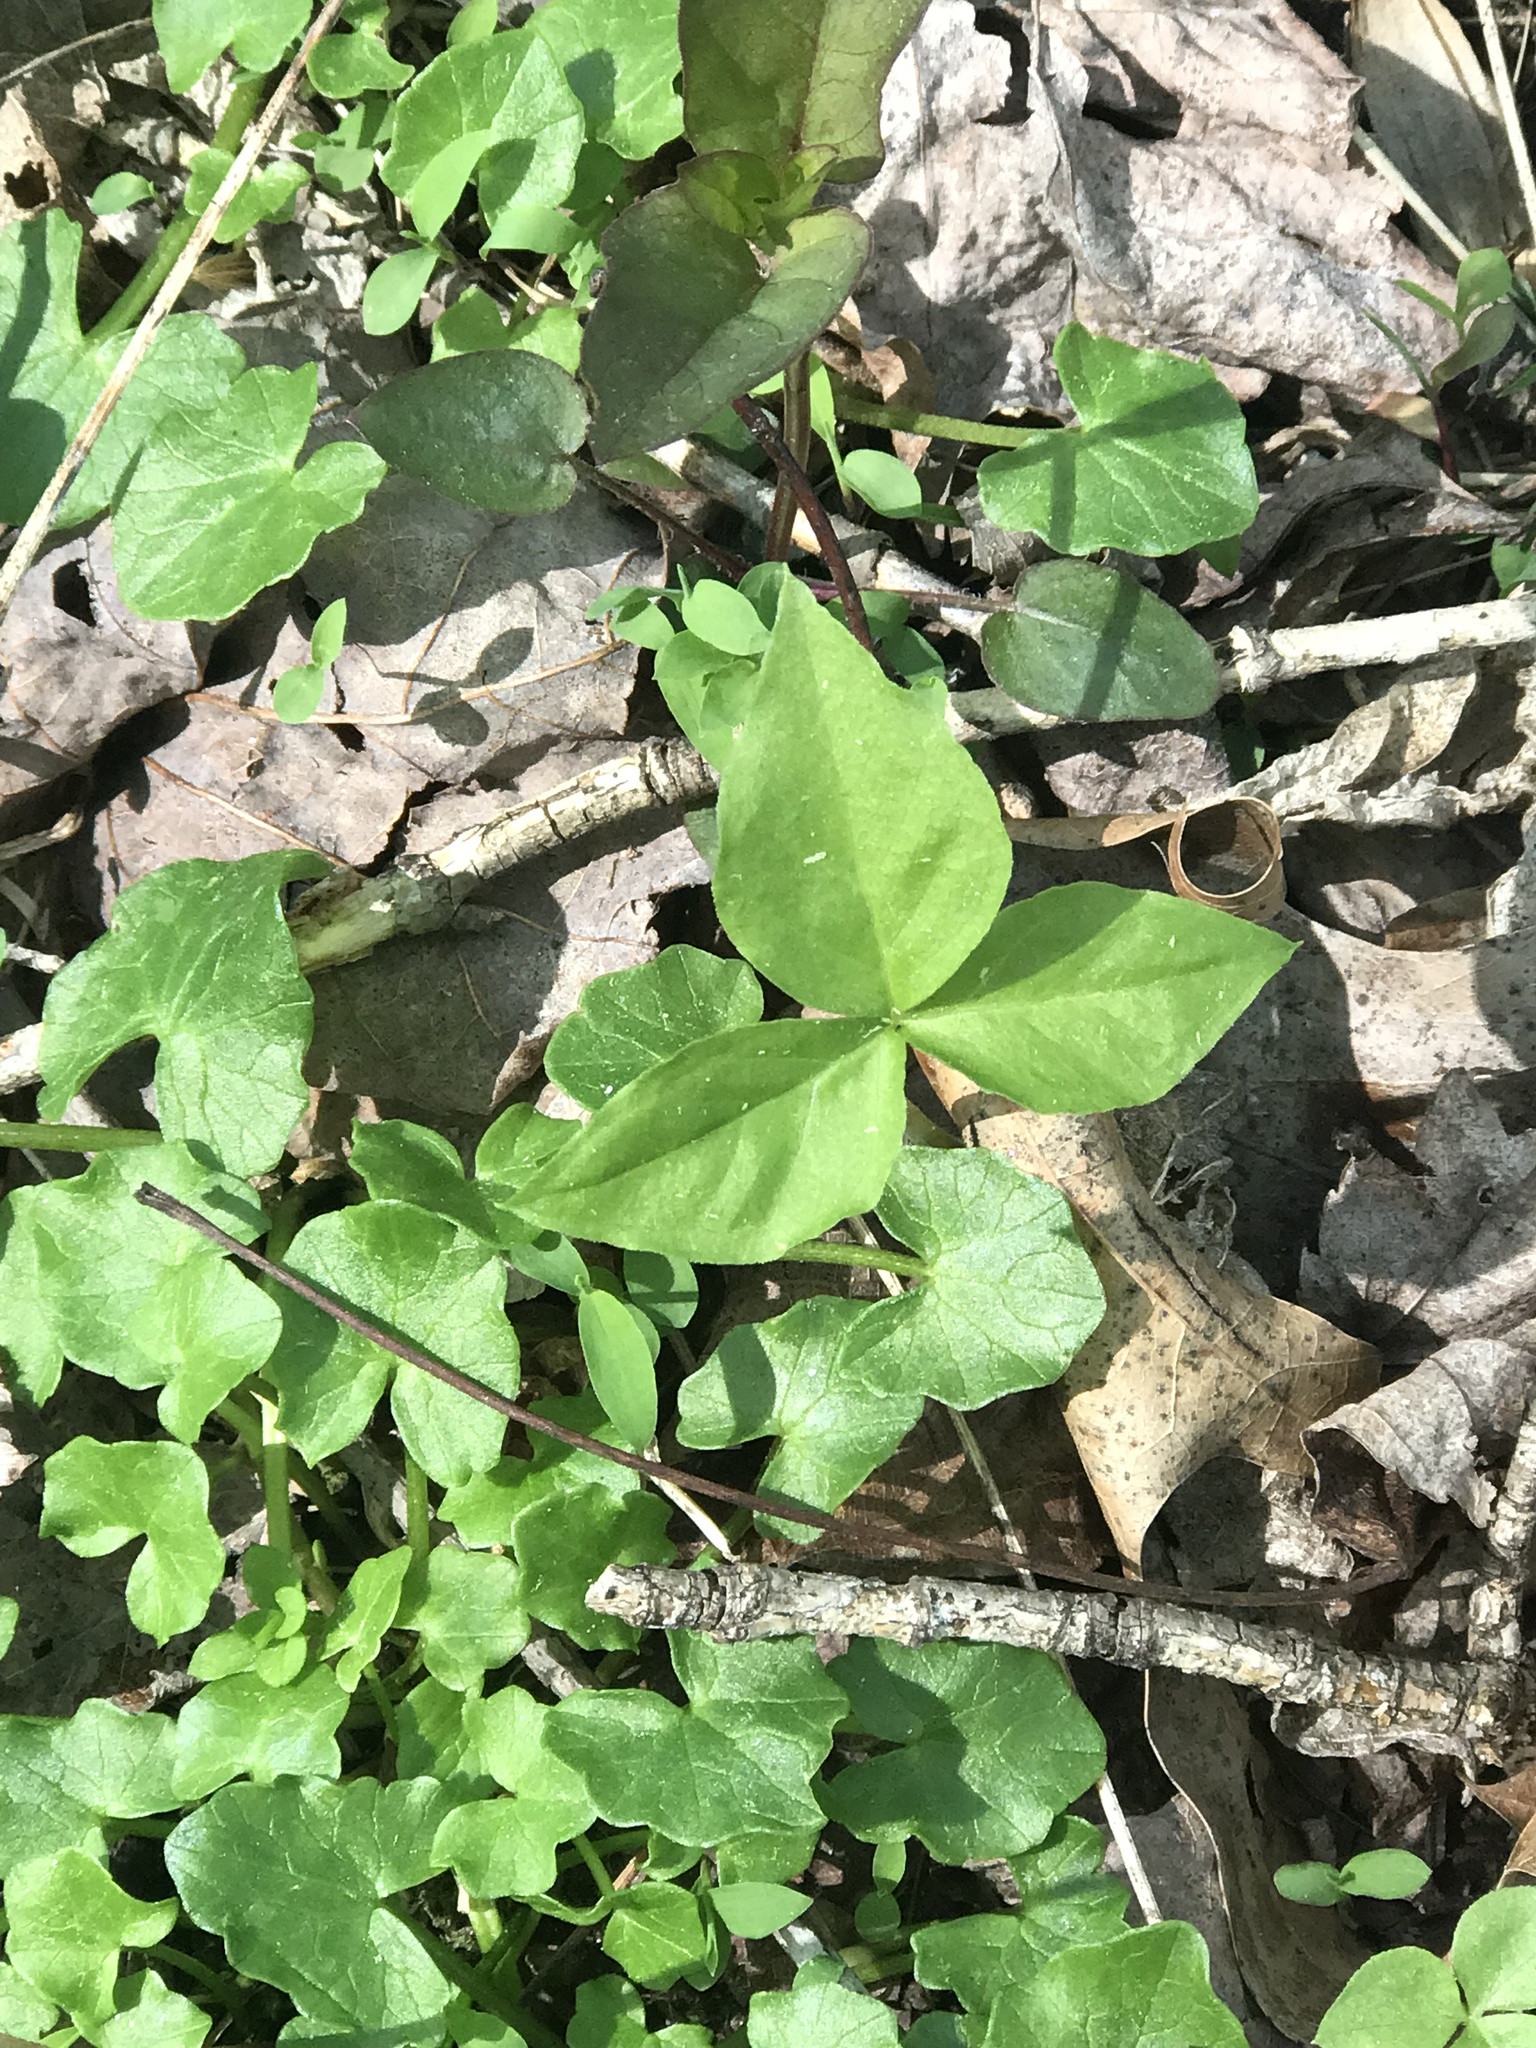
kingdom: Plantae
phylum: Tracheophyta
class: Liliopsida
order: Alismatales
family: Araceae
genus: Arisaema
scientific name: Arisaema triphyllum
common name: Jack-in-the-pulpit
